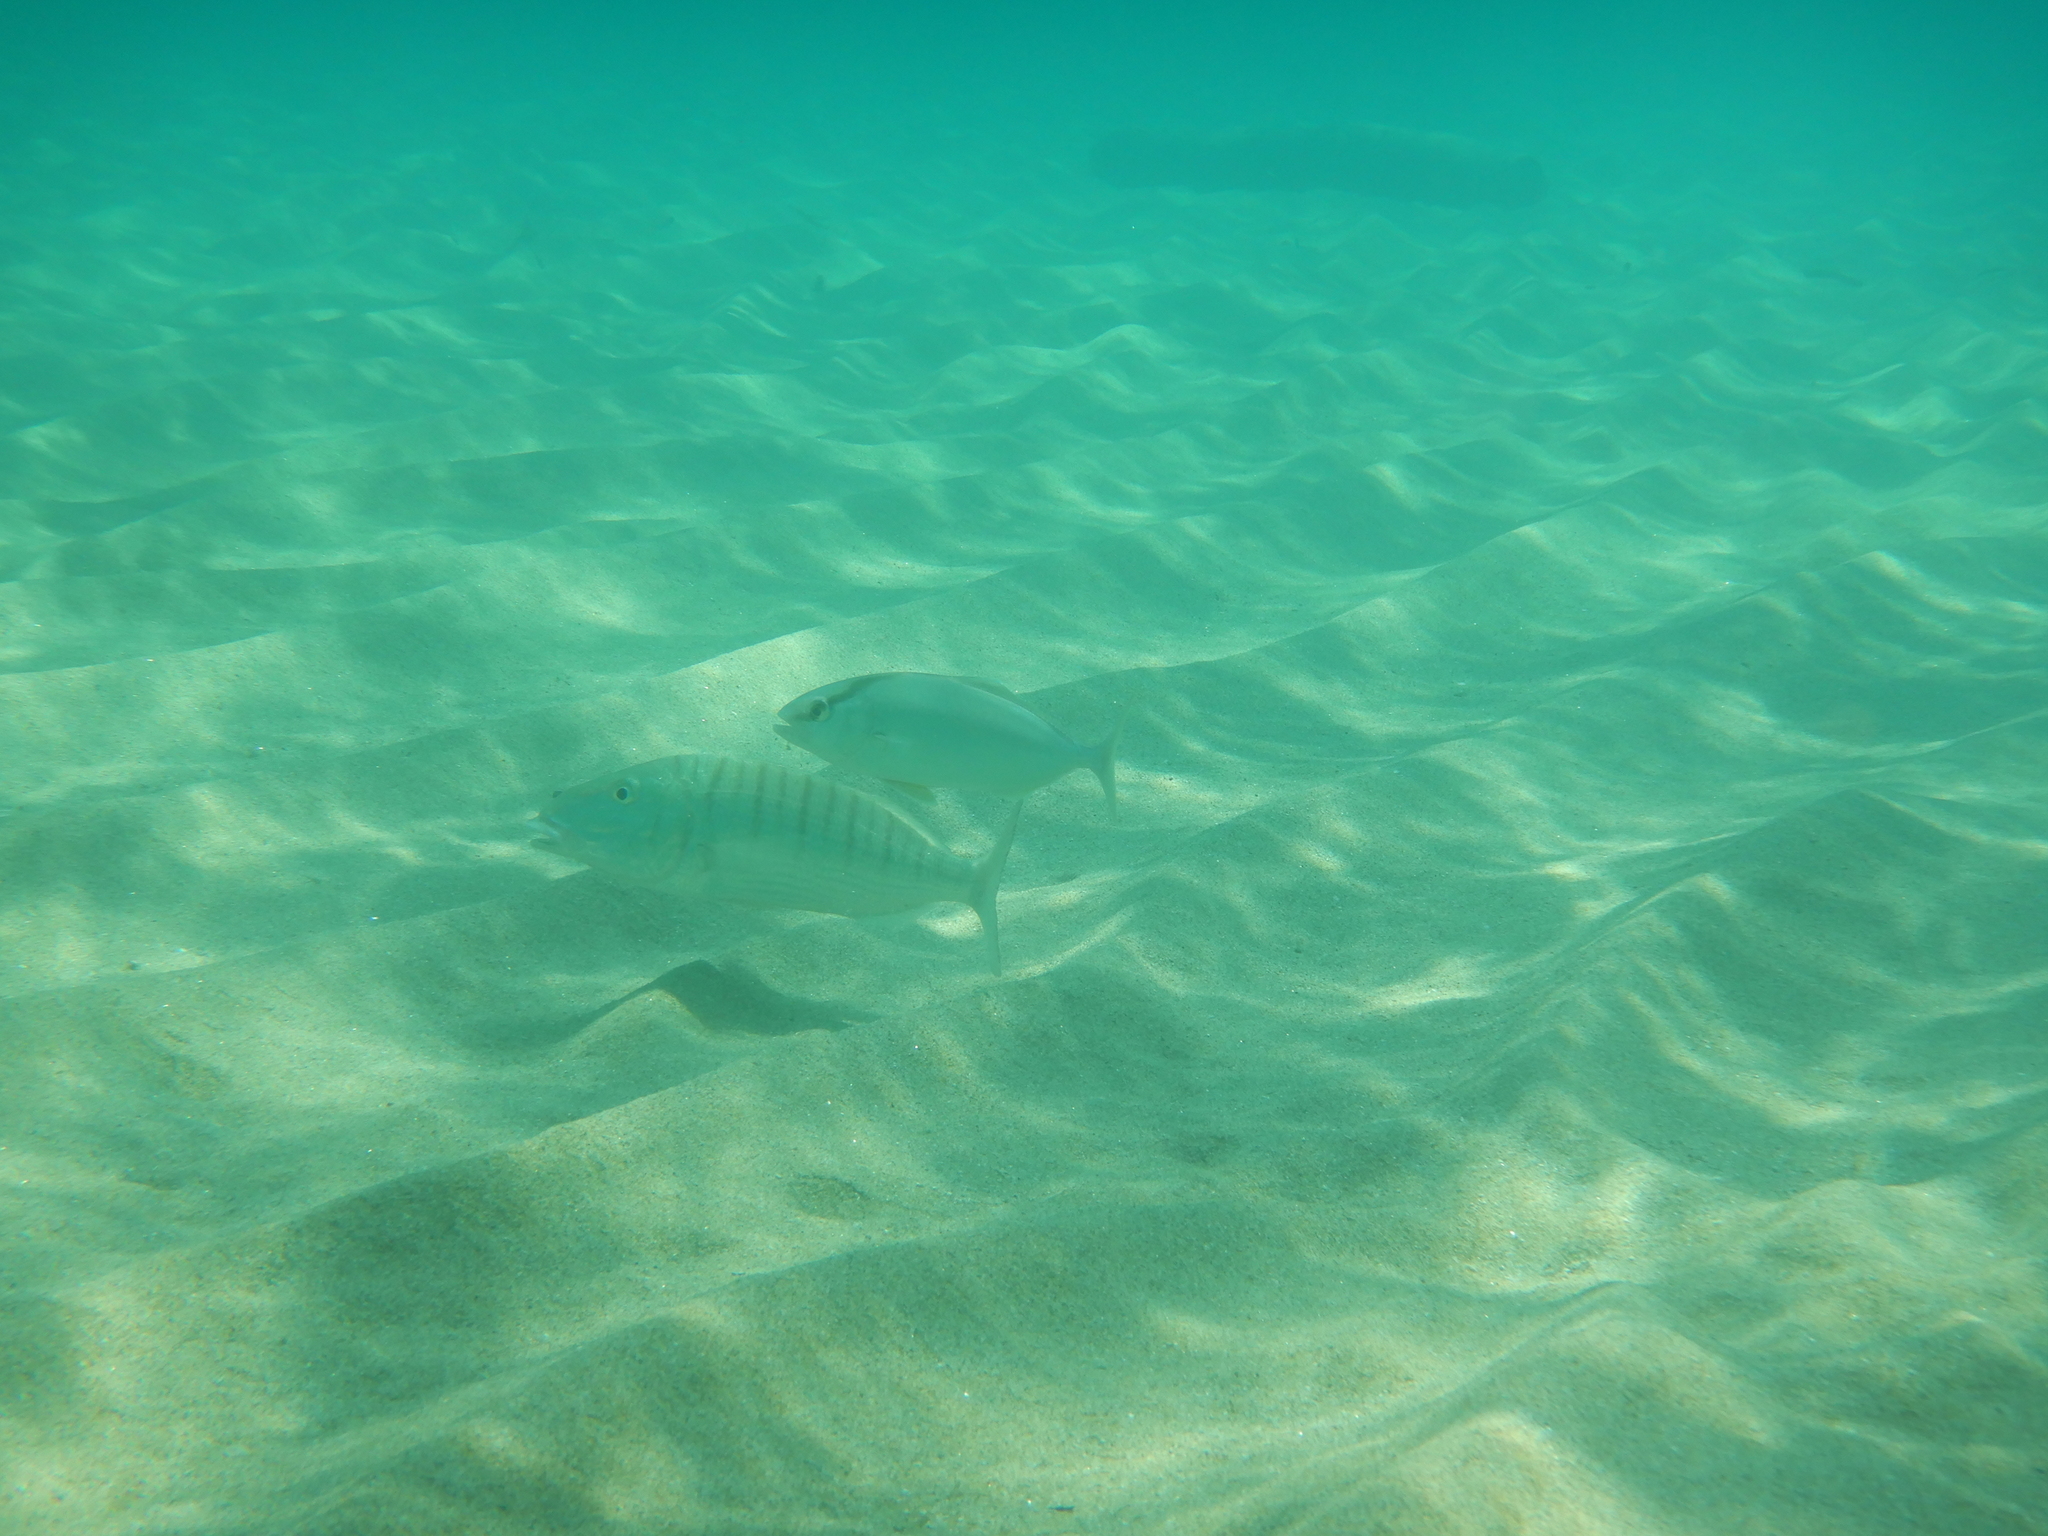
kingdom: Animalia
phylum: Chordata
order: Perciformes
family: Sparidae
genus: Lithognathus
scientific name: Lithognathus mormyrus
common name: Sand steenbras
